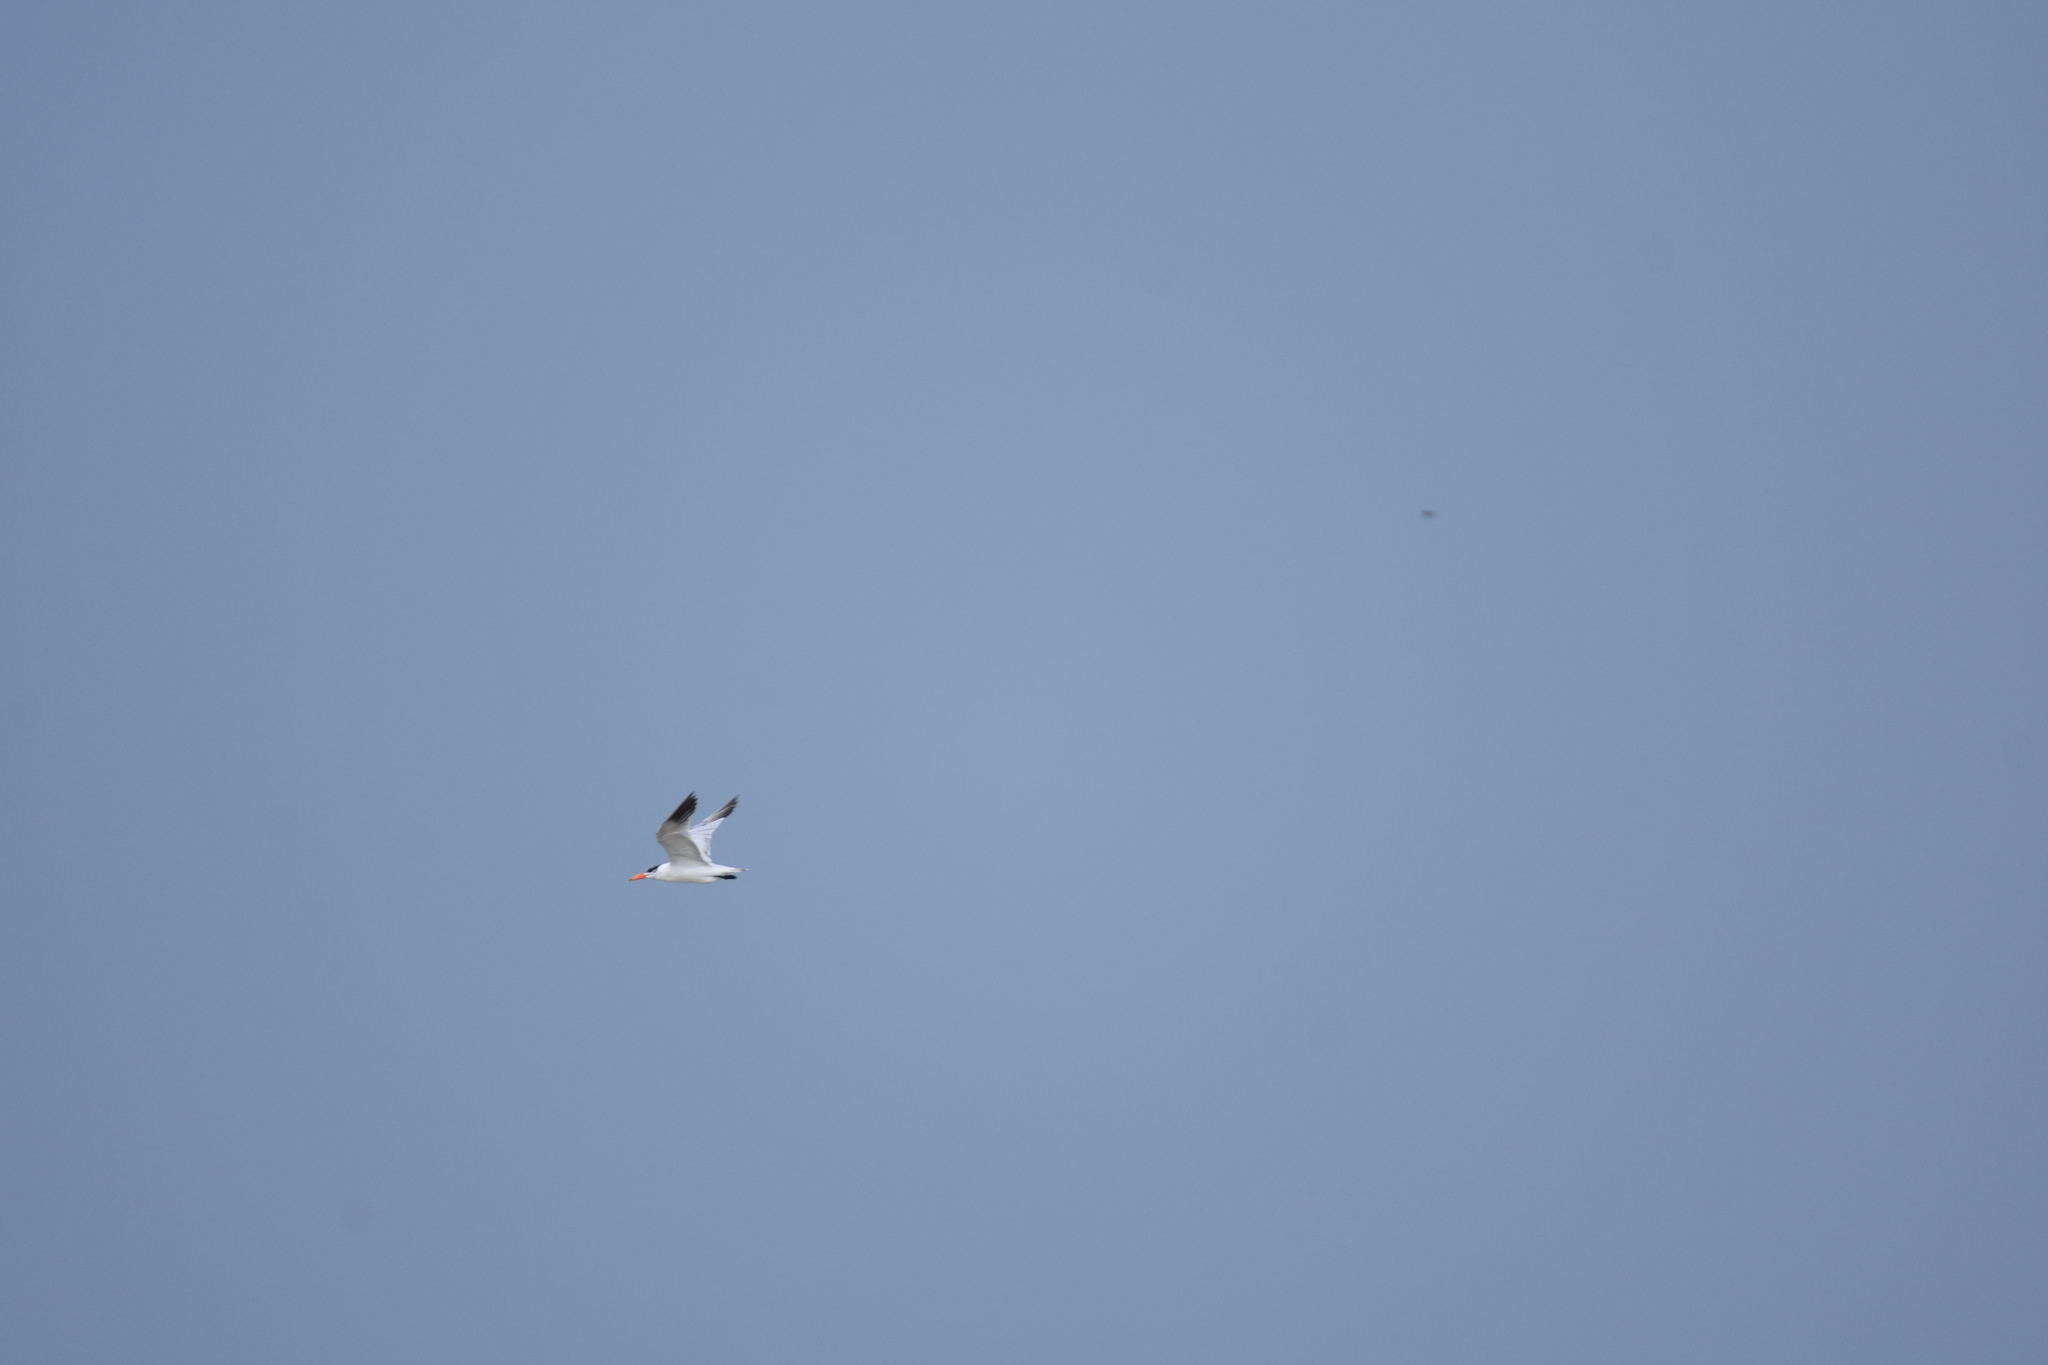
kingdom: Animalia
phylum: Chordata
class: Aves
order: Charadriiformes
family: Laridae
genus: Hydroprogne
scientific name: Hydroprogne caspia
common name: Caspian tern
